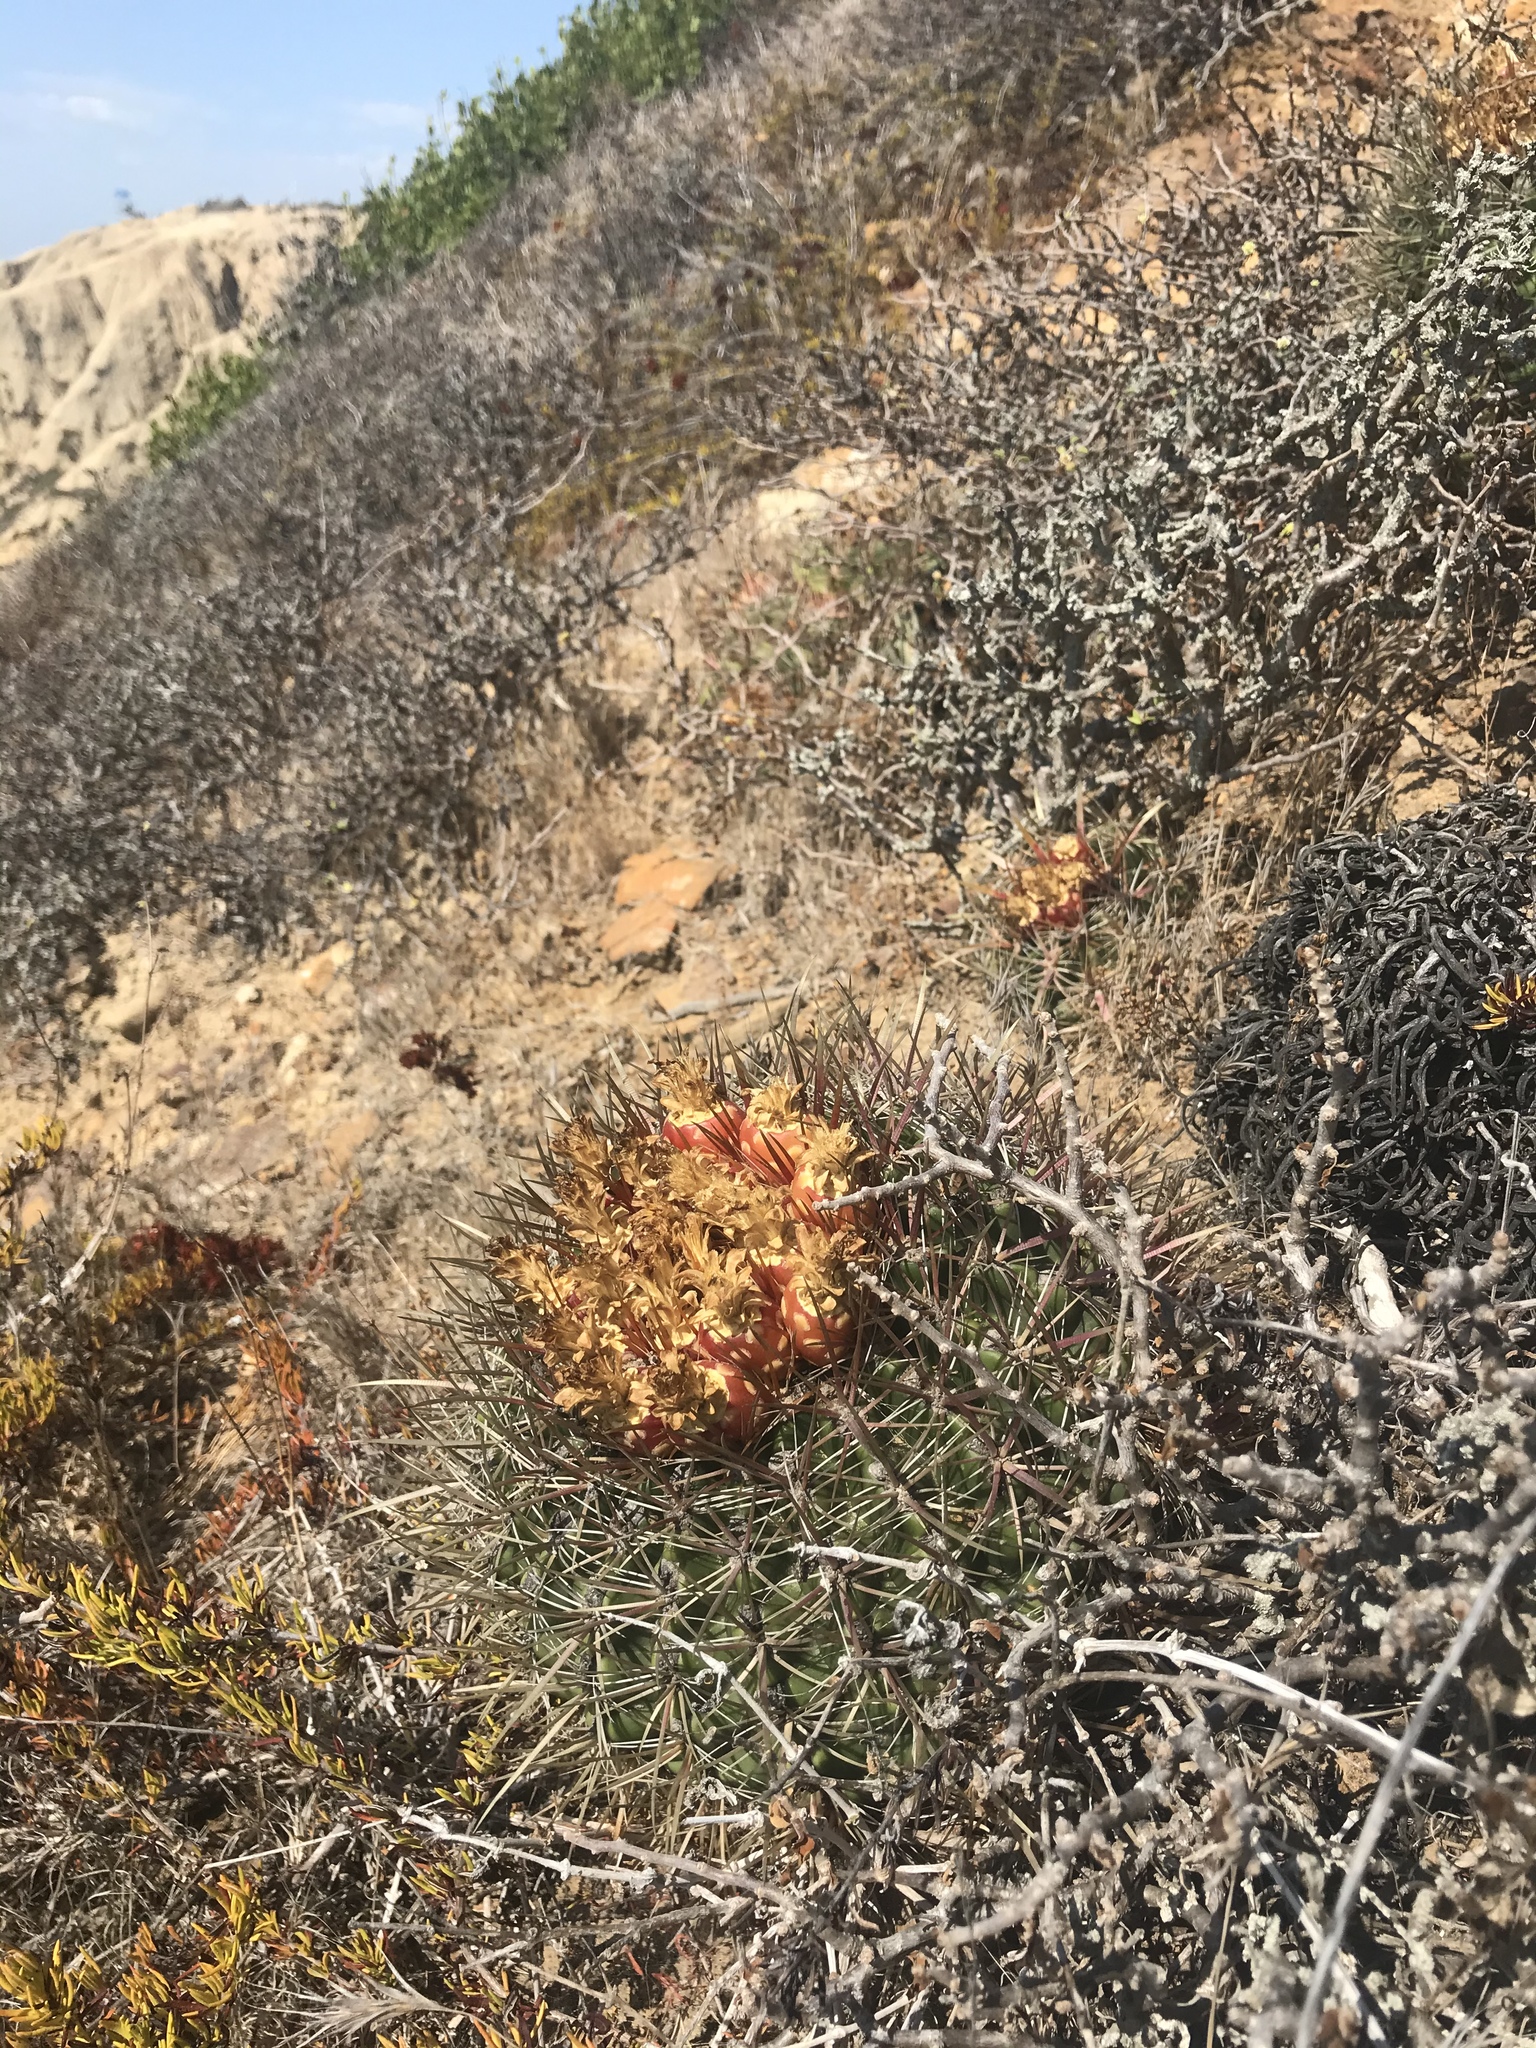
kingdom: Plantae
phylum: Tracheophyta
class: Magnoliopsida
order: Caryophyllales
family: Cactaceae
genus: Ferocactus
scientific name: Ferocactus viridescens
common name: San diego barrel cactus
